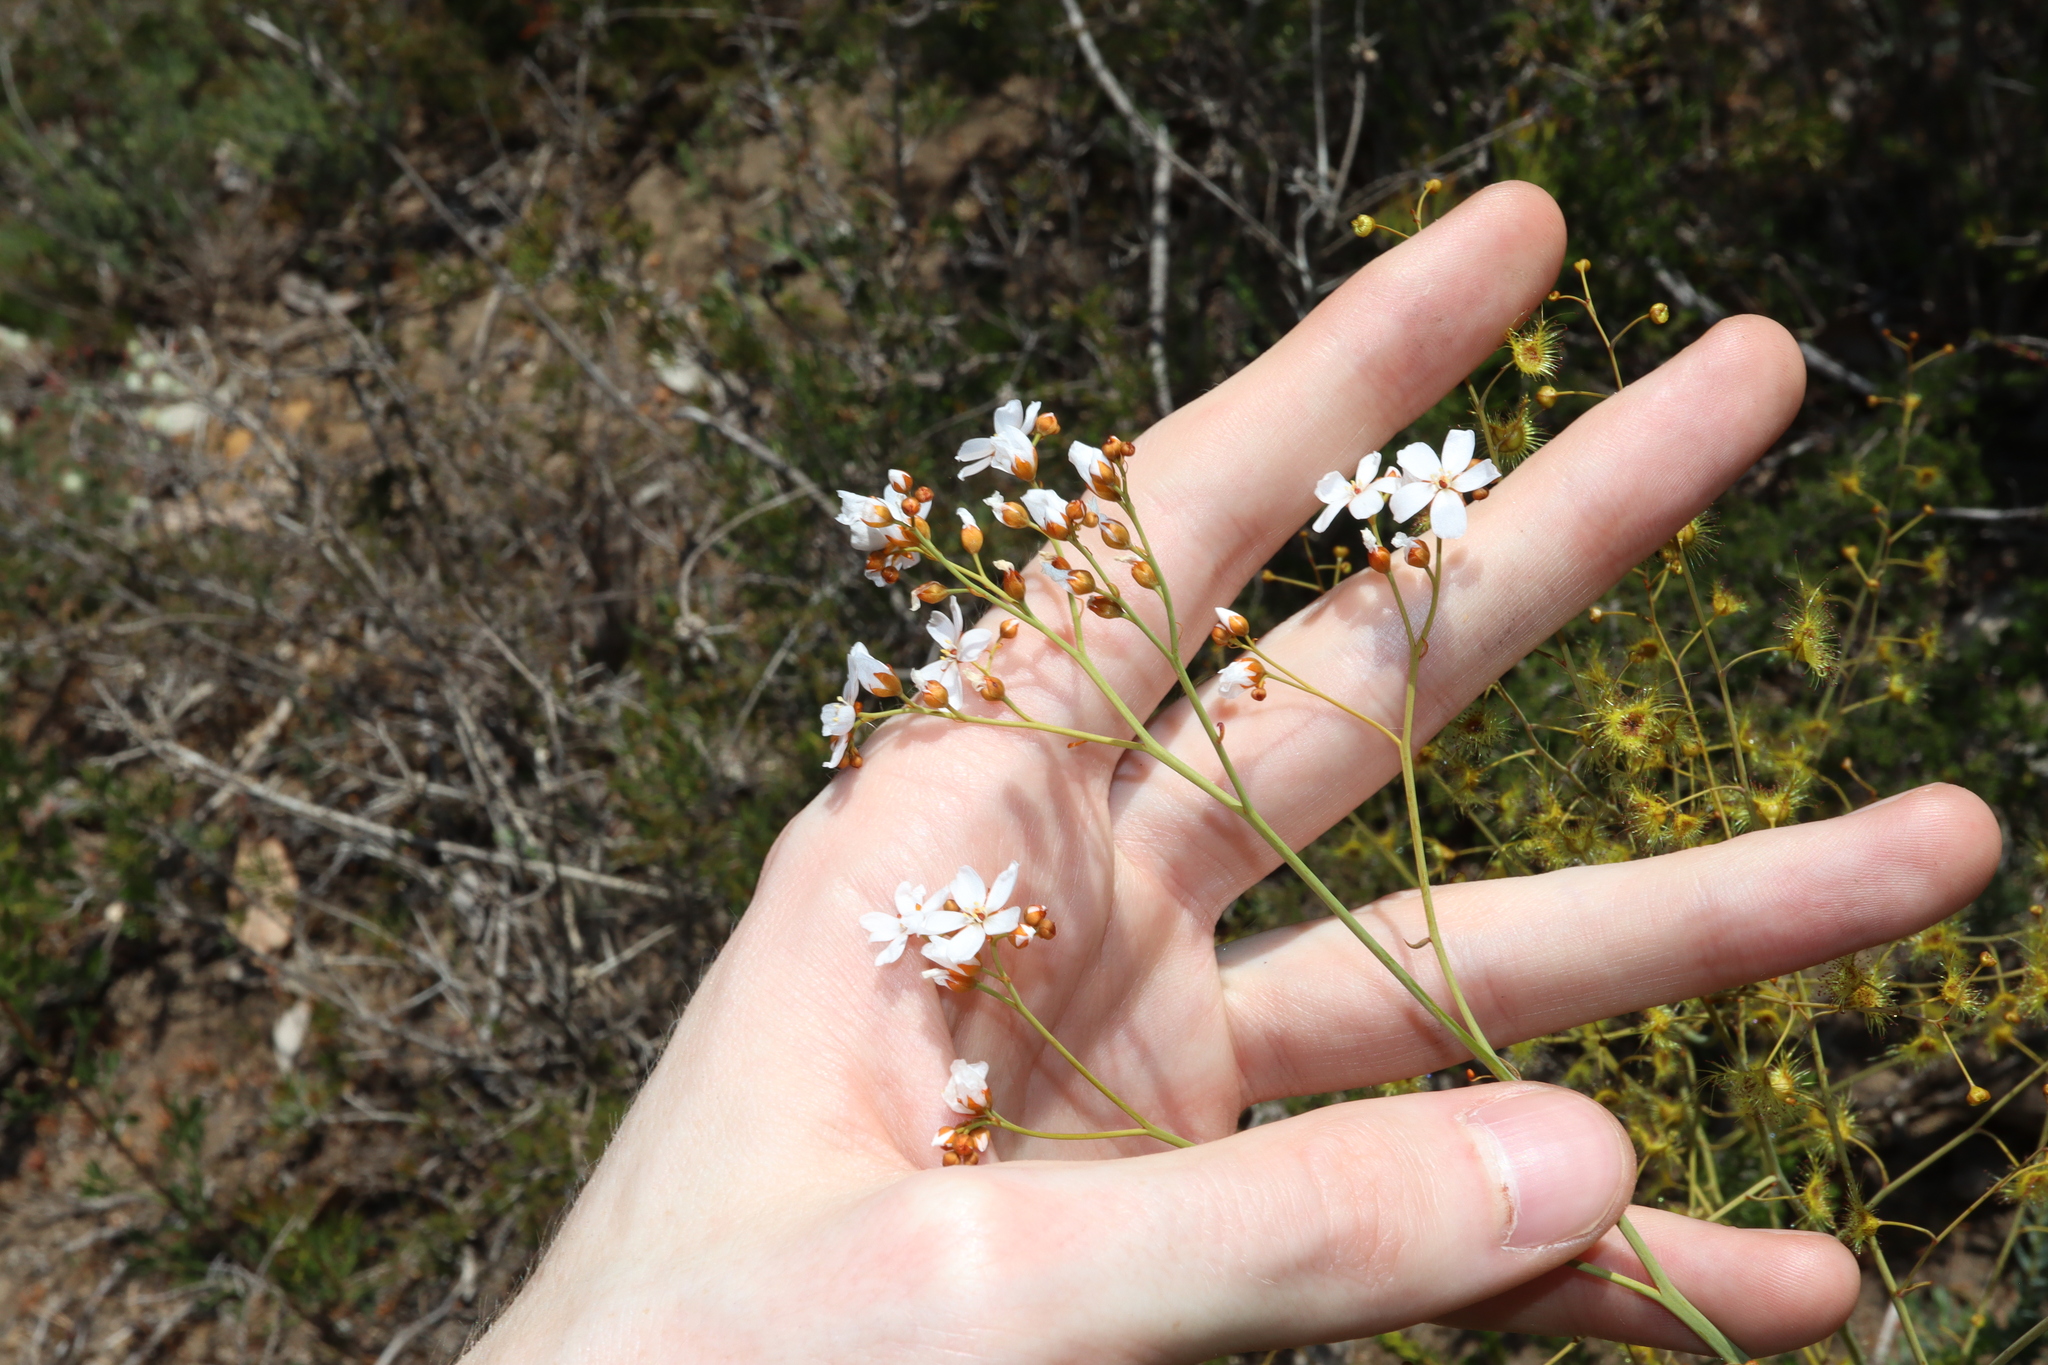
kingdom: Plantae
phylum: Tracheophyta
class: Magnoliopsida
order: Caryophyllales
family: Droseraceae
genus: Drosera
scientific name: Drosera gigantea
